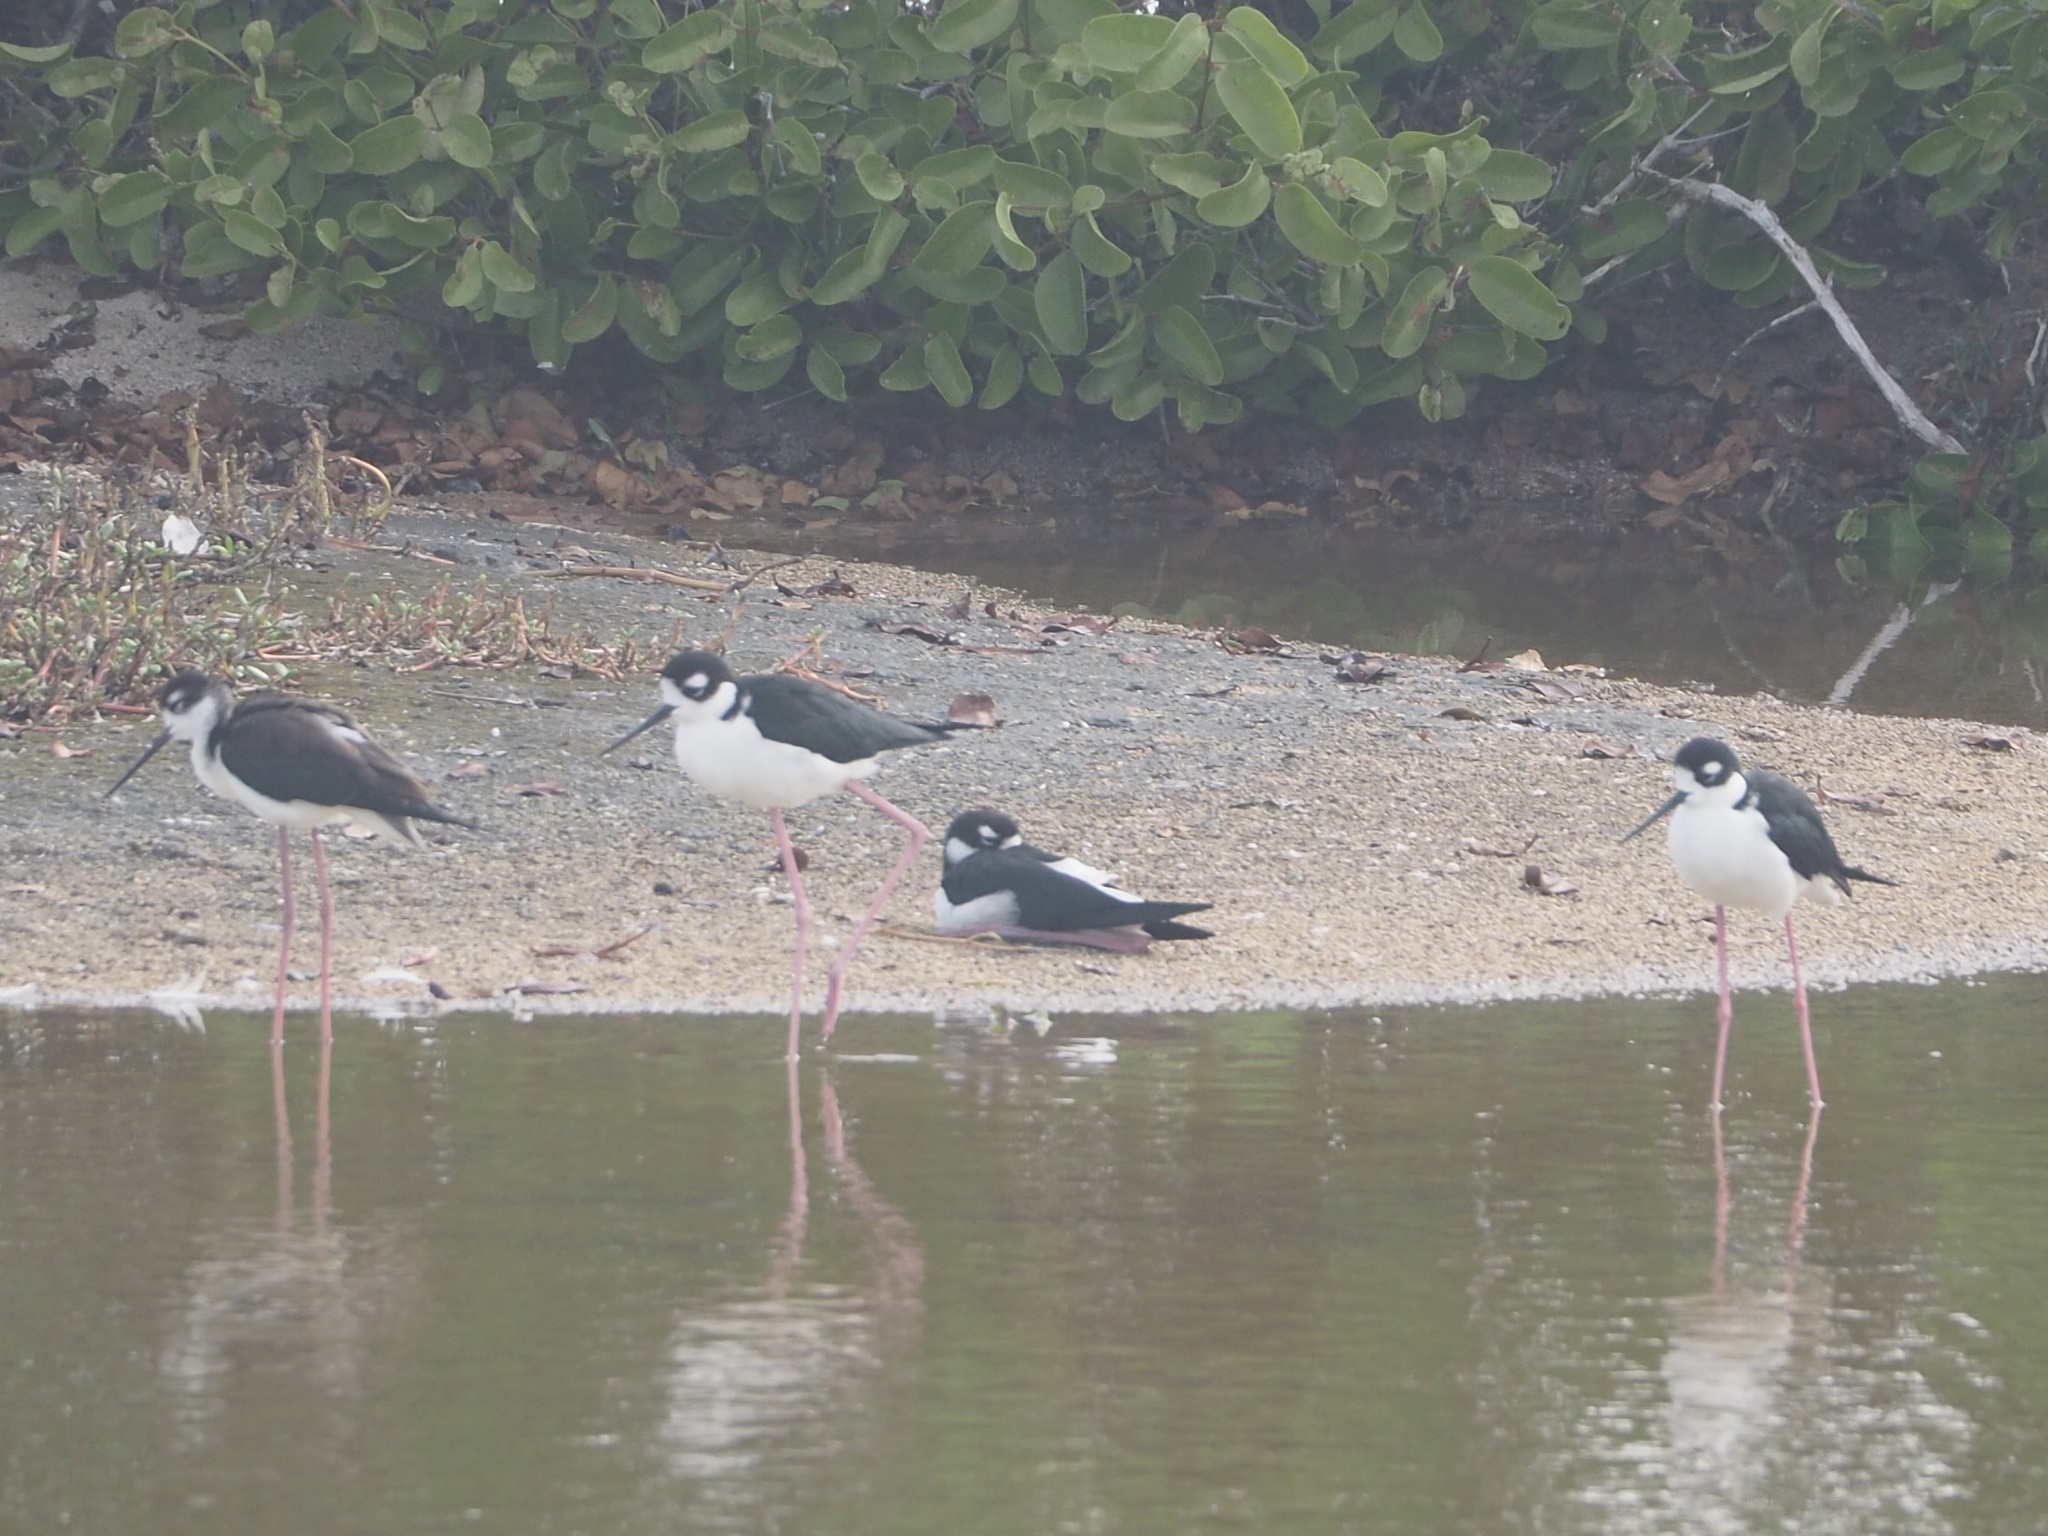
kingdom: Animalia
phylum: Chordata
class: Aves
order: Charadriiformes
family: Recurvirostridae
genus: Himantopus
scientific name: Himantopus mexicanus
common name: Black-necked stilt
